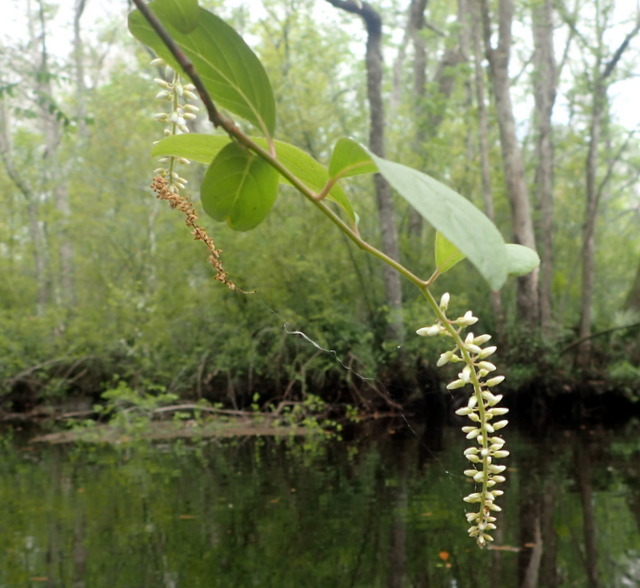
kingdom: Plantae
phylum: Tracheophyta
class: Magnoliopsida
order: Saxifragales
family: Iteaceae
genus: Itea
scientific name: Itea virginica
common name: Sweetspire
